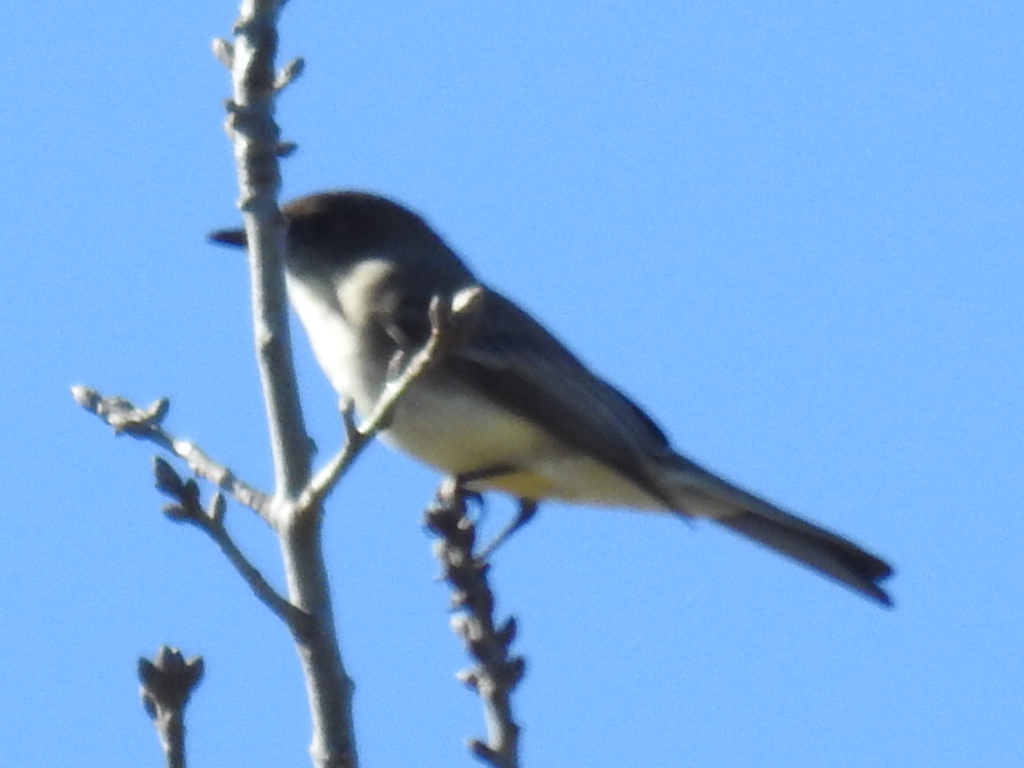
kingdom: Animalia
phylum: Chordata
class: Aves
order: Passeriformes
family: Tyrannidae
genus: Sayornis
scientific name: Sayornis phoebe
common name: Eastern phoebe
